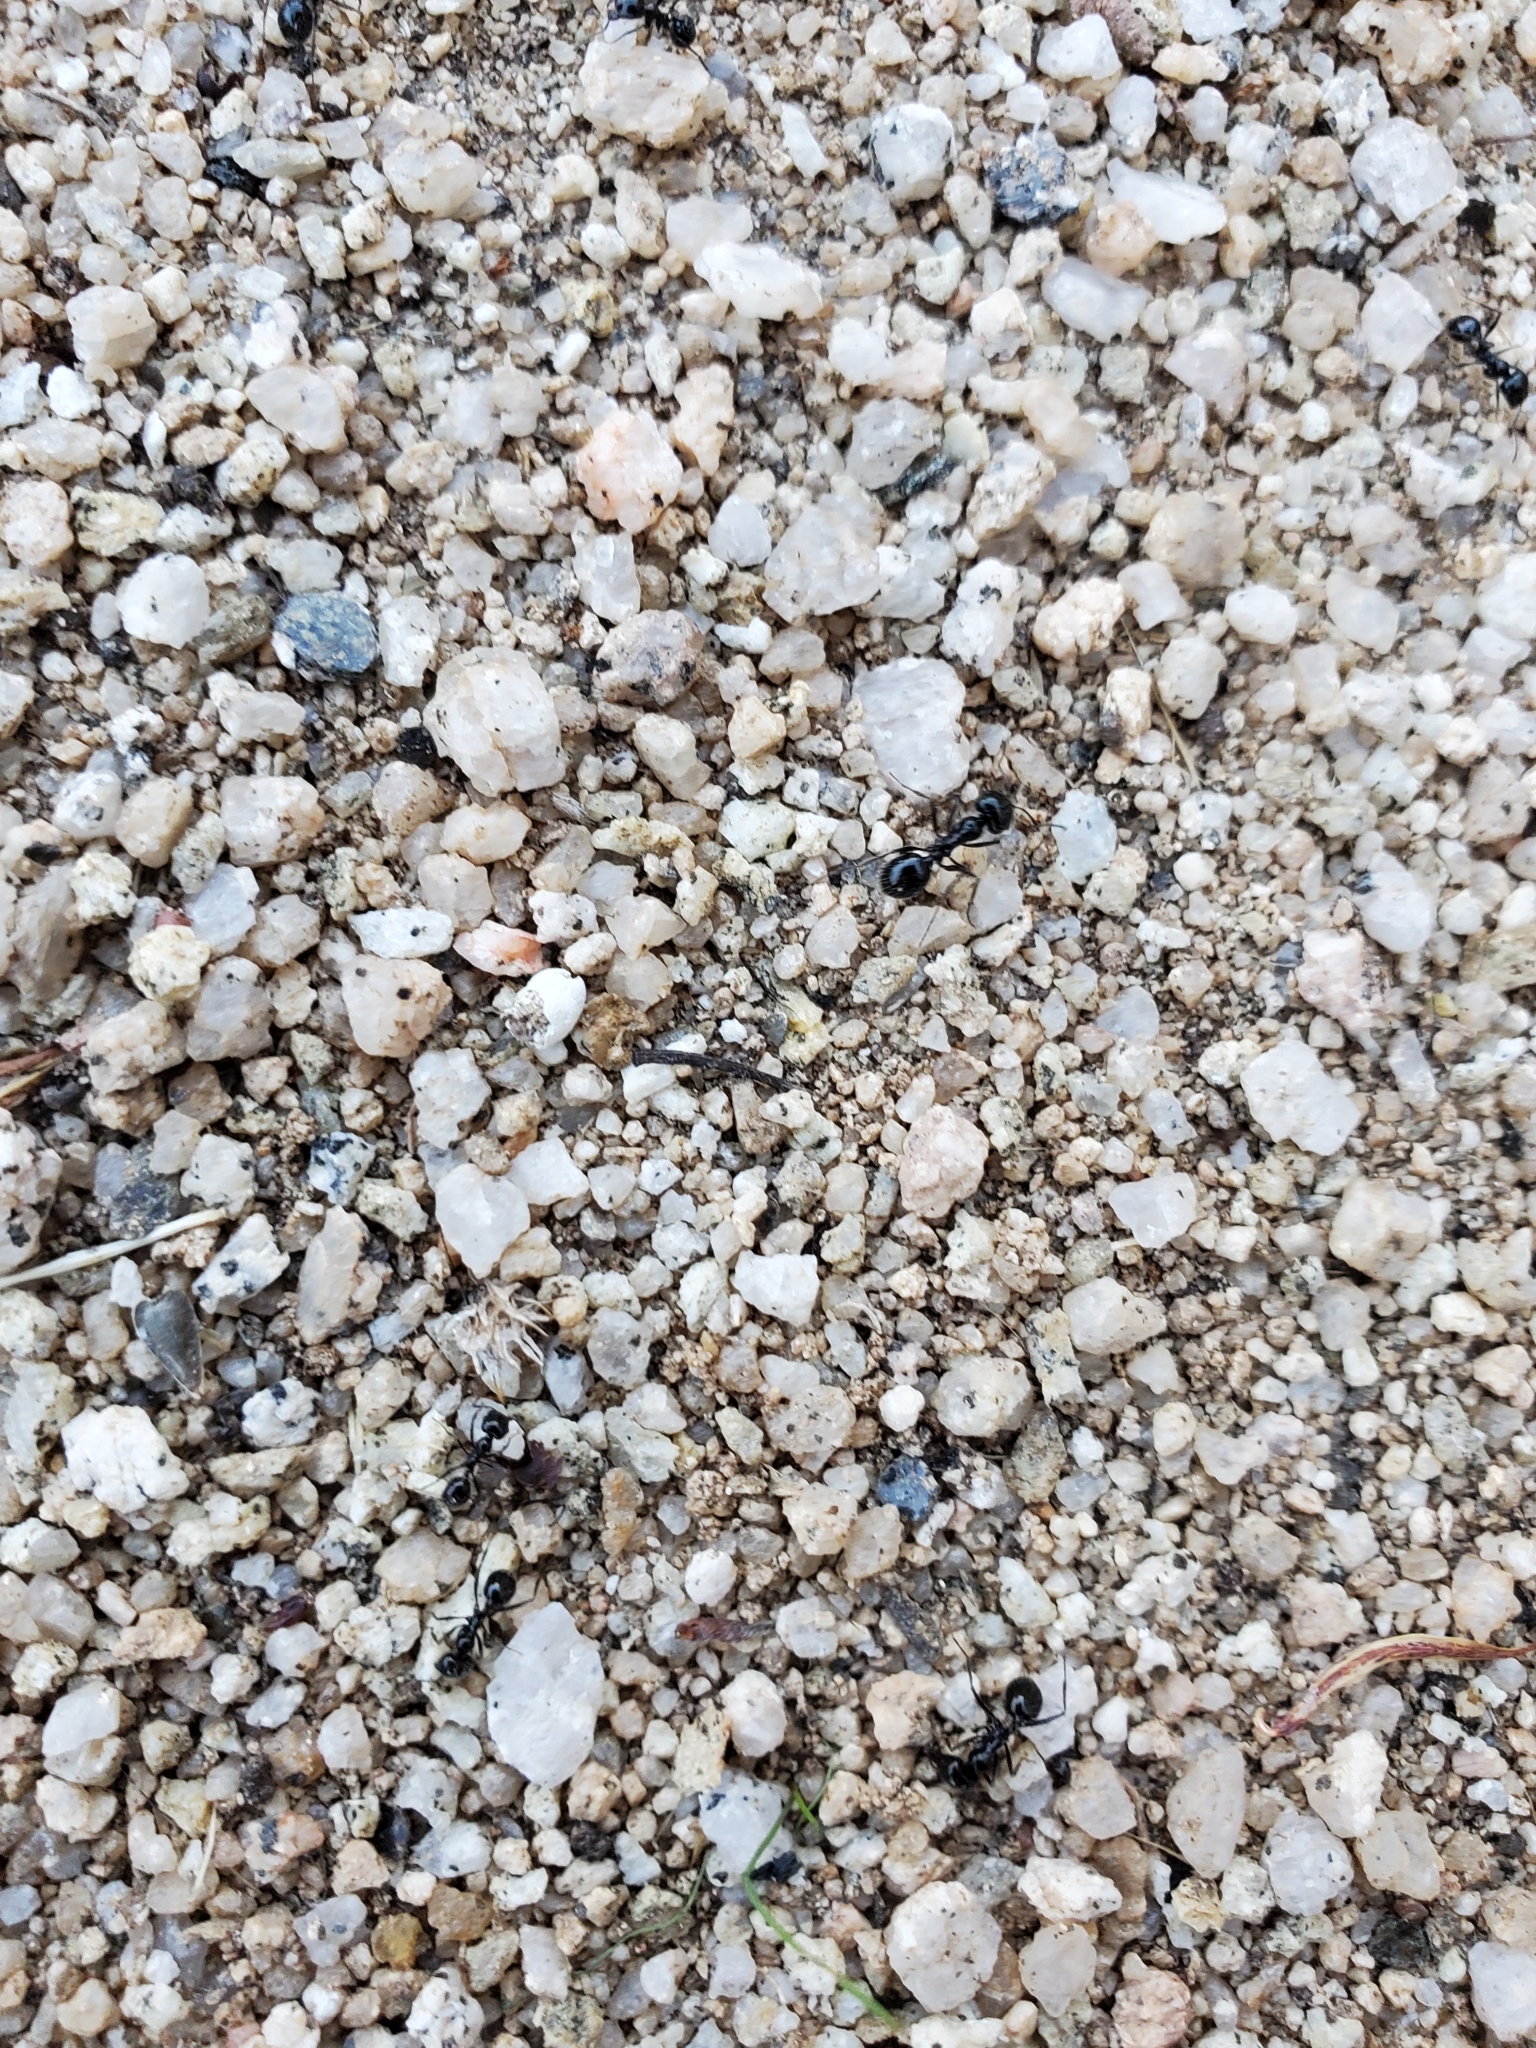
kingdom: Animalia
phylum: Arthropoda
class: Insecta
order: Hymenoptera
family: Formicidae
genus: Messor
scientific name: Messor pergandei
